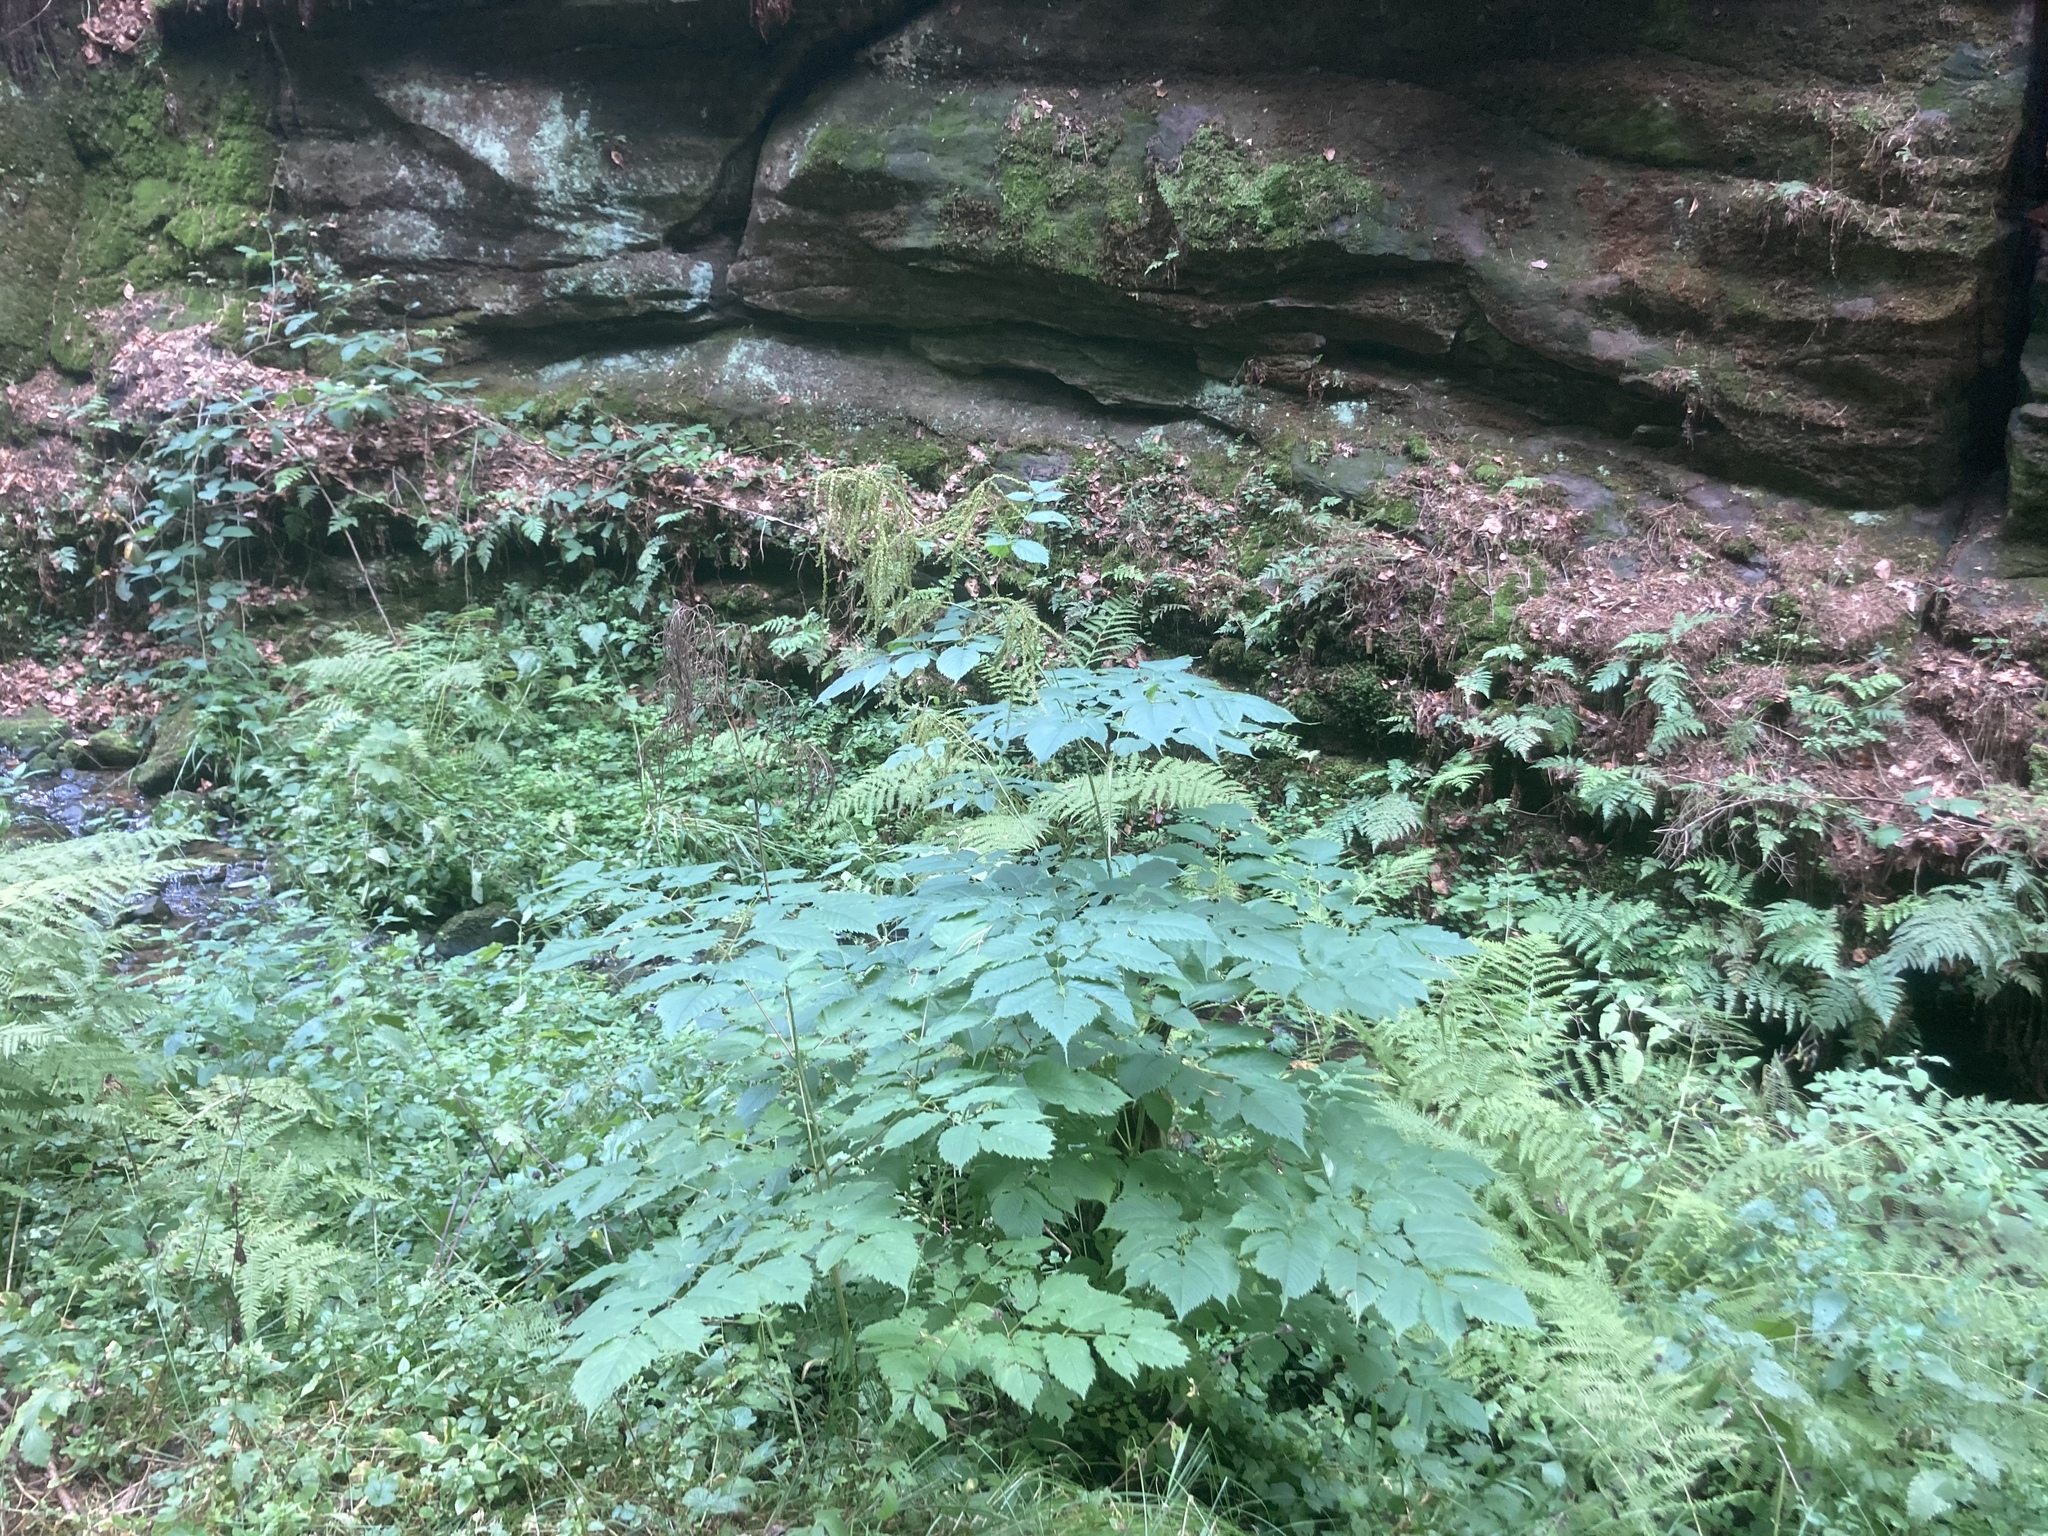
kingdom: Plantae
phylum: Tracheophyta
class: Magnoliopsida
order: Rosales
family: Rosaceae
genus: Aruncus
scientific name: Aruncus dioicus
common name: Buck's-beard
